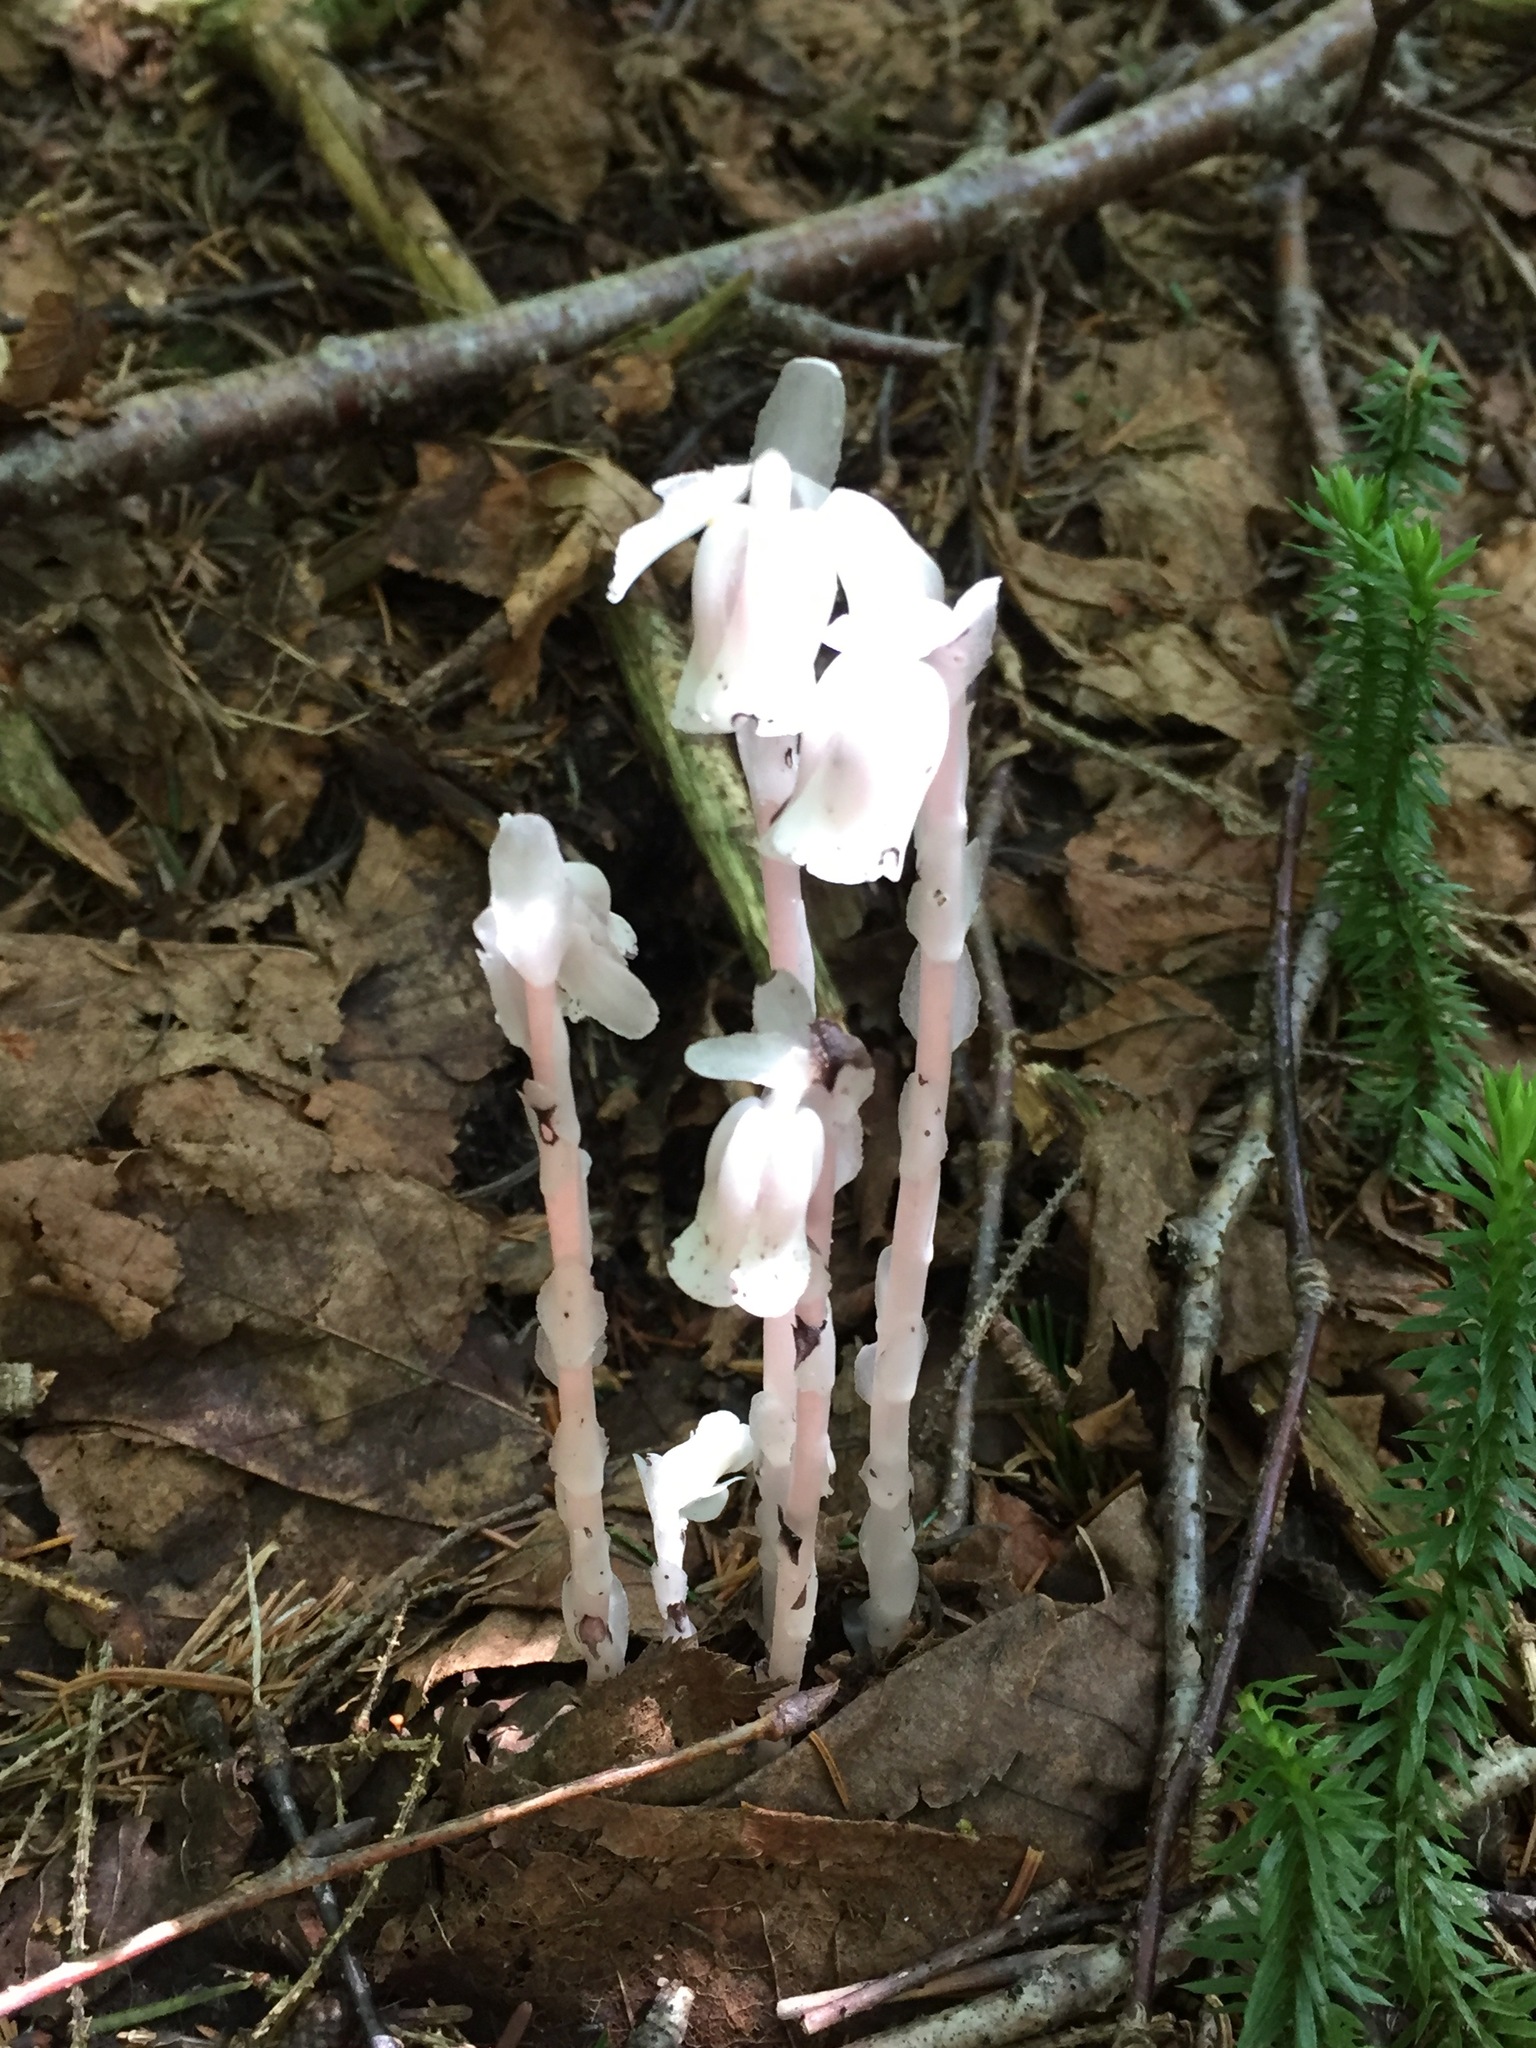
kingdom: Plantae
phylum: Tracheophyta
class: Magnoliopsida
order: Ericales
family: Ericaceae
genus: Monotropa
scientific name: Monotropa uniflora
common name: Convulsion root
